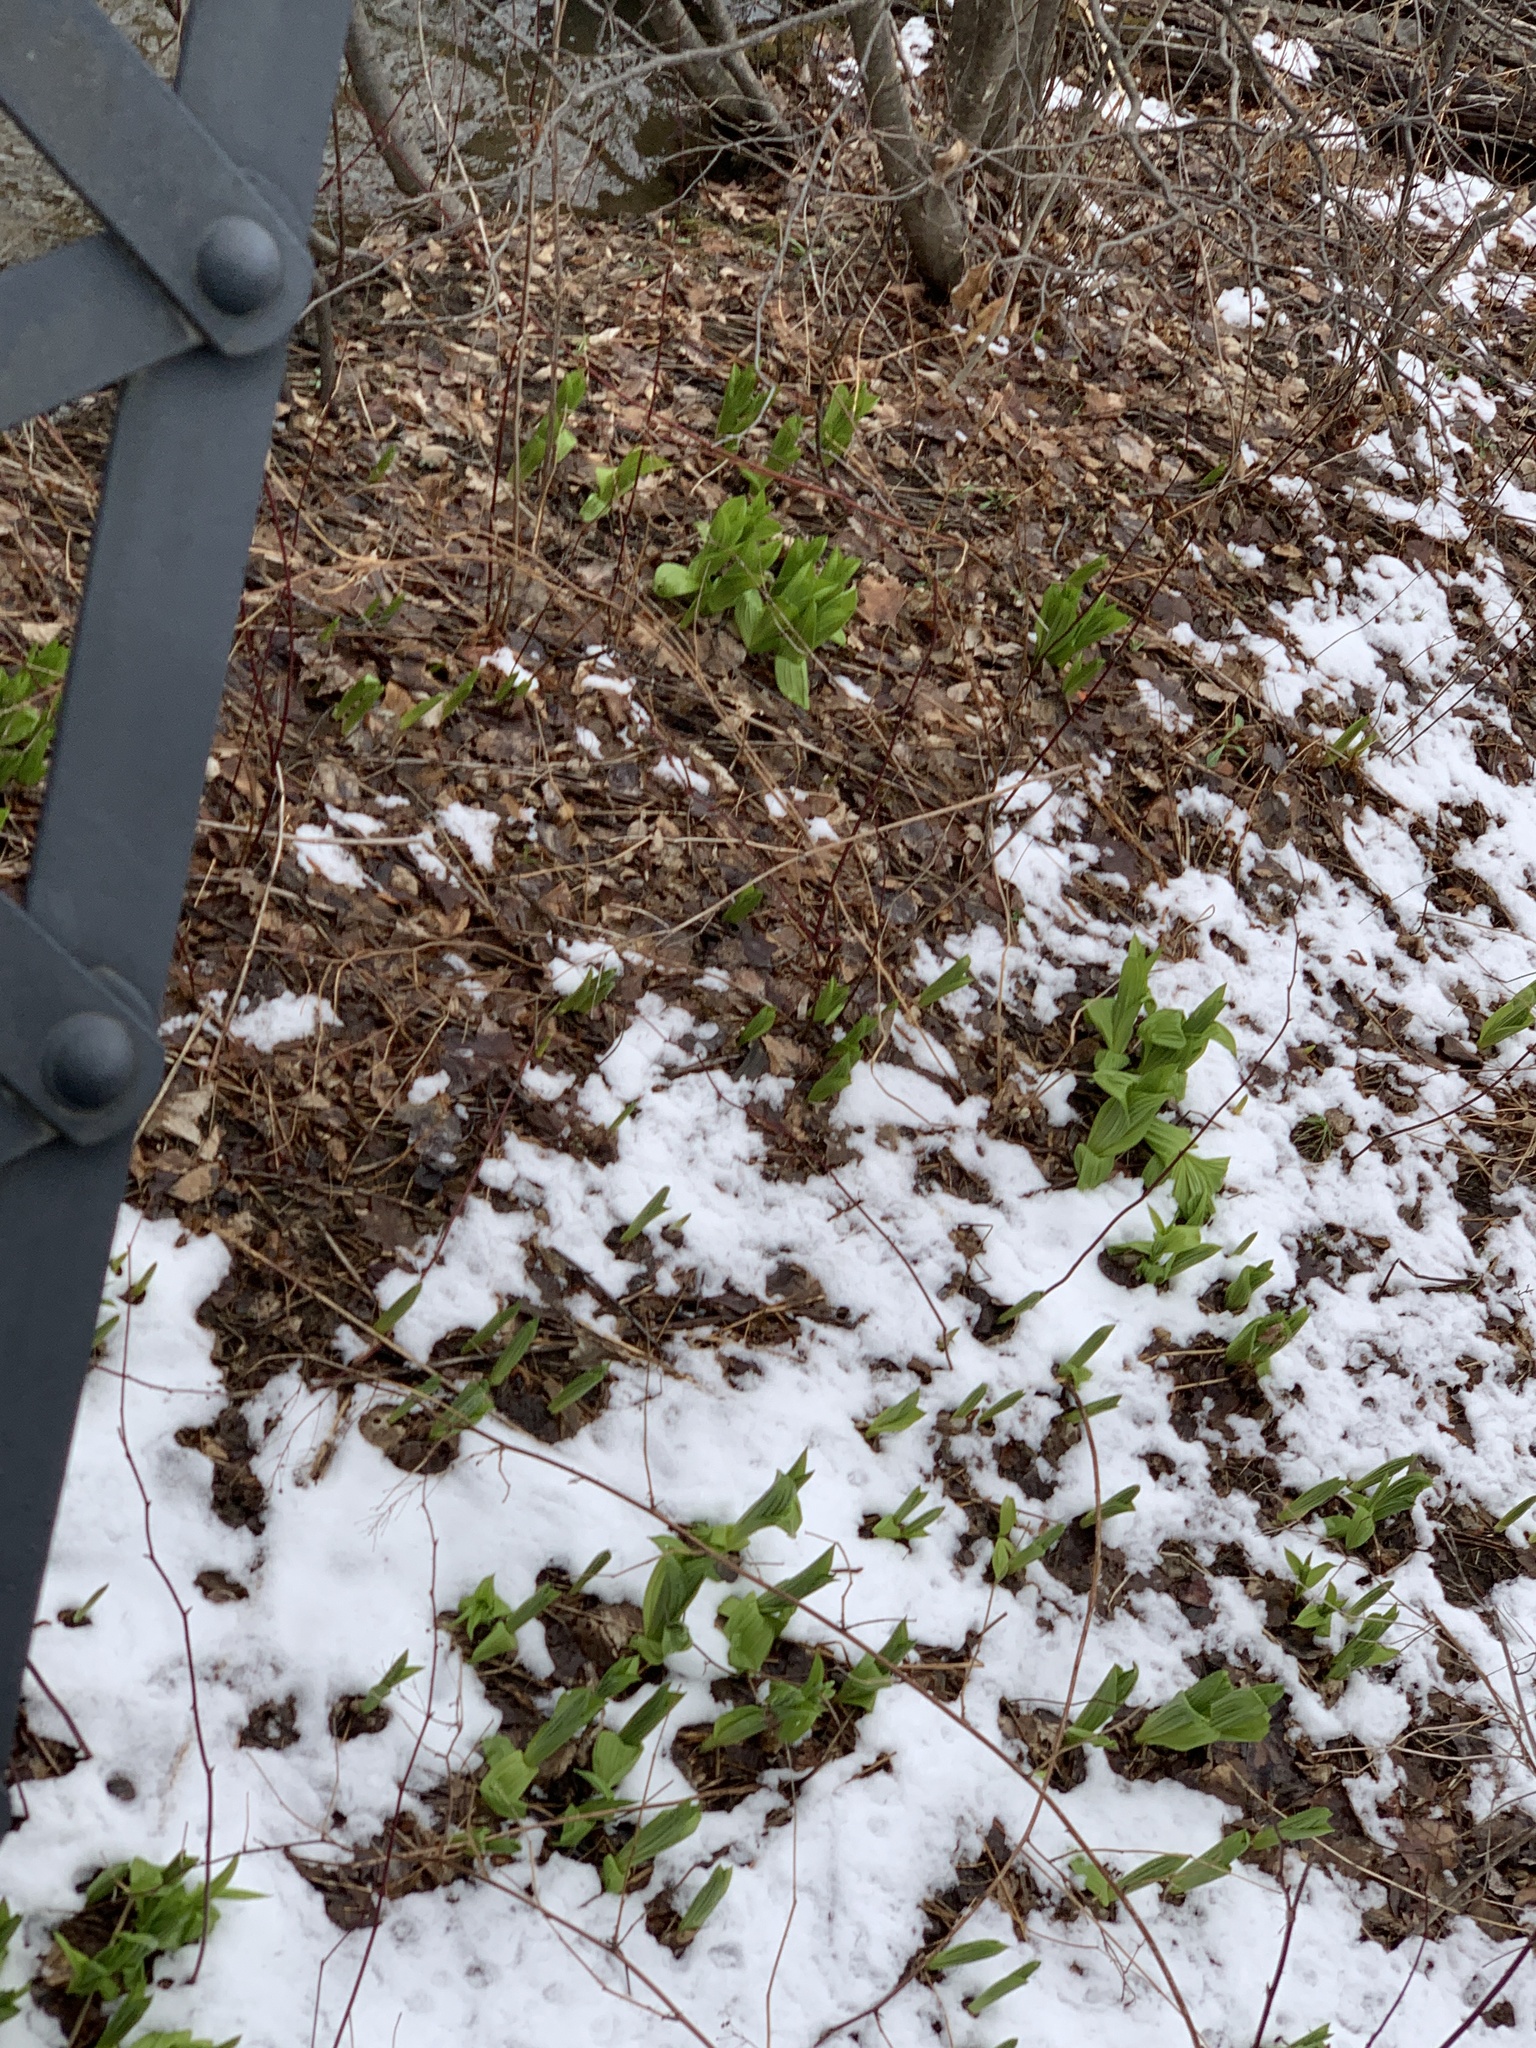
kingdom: Plantae
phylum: Tracheophyta
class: Liliopsida
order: Liliales
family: Melanthiaceae
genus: Veratrum
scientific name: Veratrum viride
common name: American false hellebore
